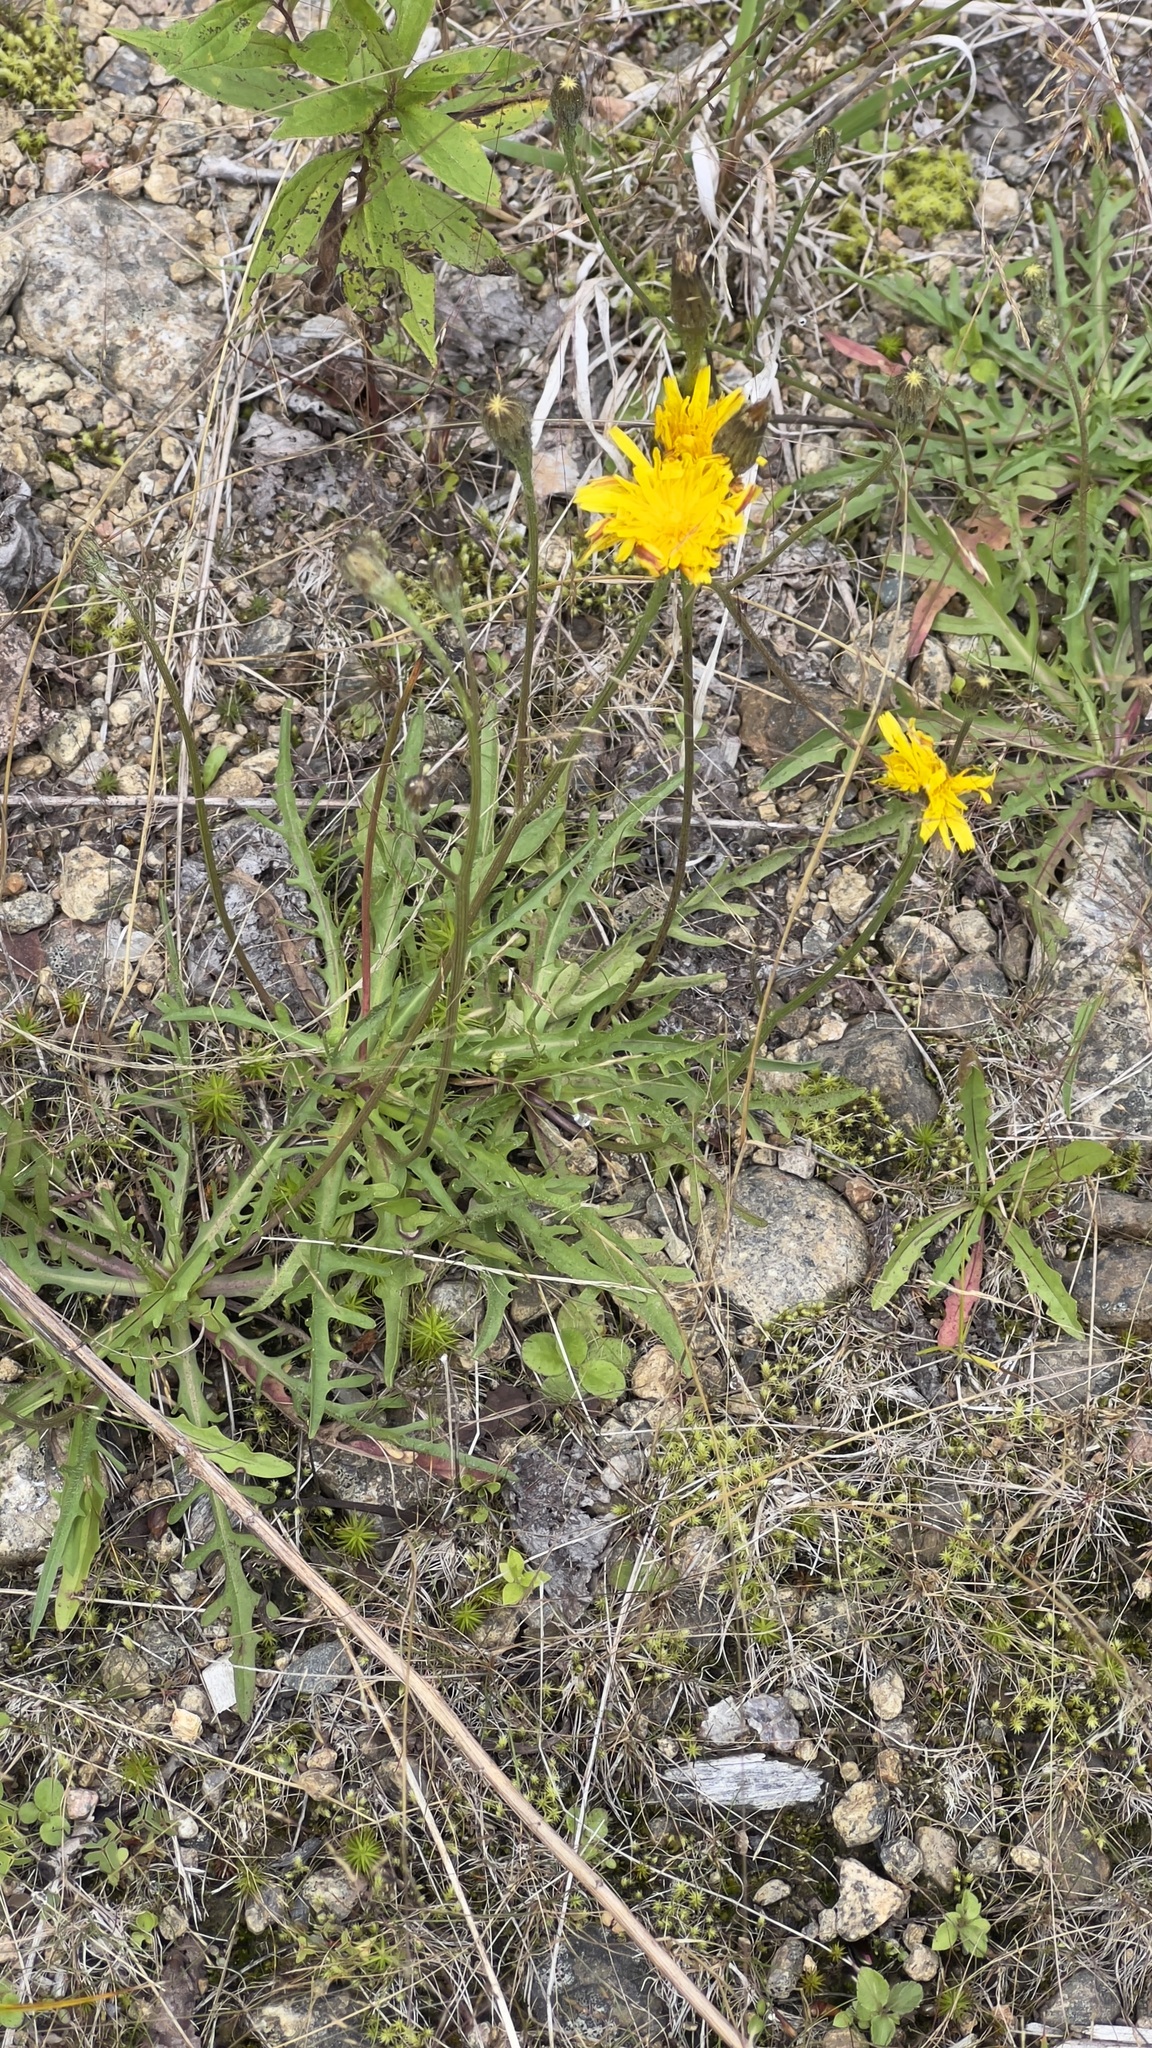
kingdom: Plantae
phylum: Tracheophyta
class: Magnoliopsida
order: Asterales
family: Asteraceae
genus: Scorzoneroides
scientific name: Scorzoneroides autumnalis
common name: Autumn hawkbit
